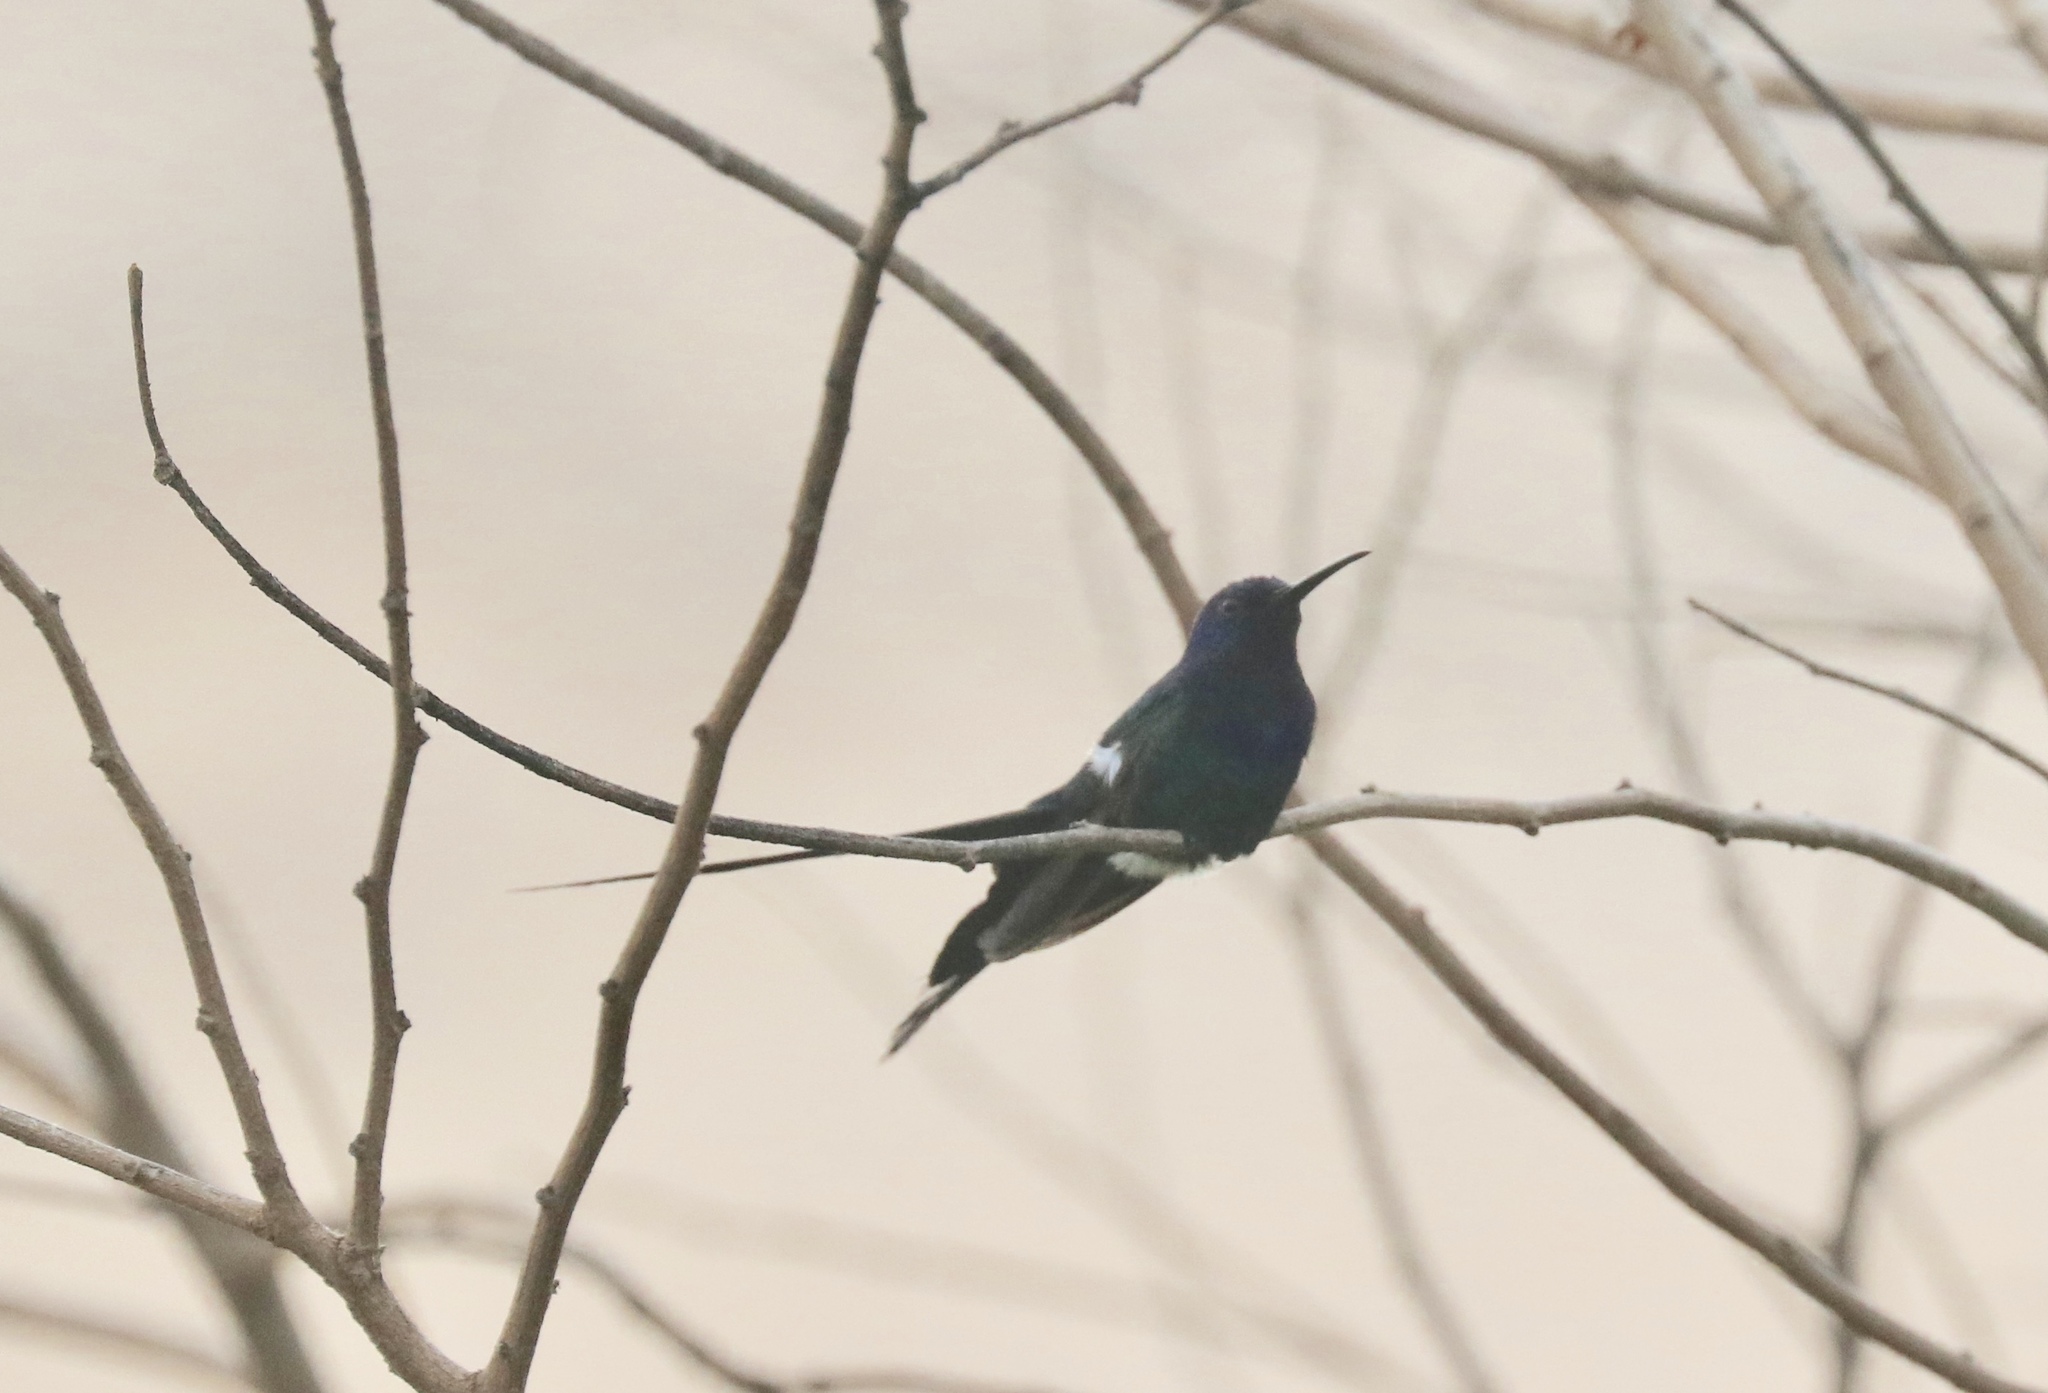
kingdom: Animalia
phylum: Chordata
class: Aves
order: Apodiformes
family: Trochilidae
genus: Eupetomena
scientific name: Eupetomena macroura
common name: Swallow-tailed hummingbird
